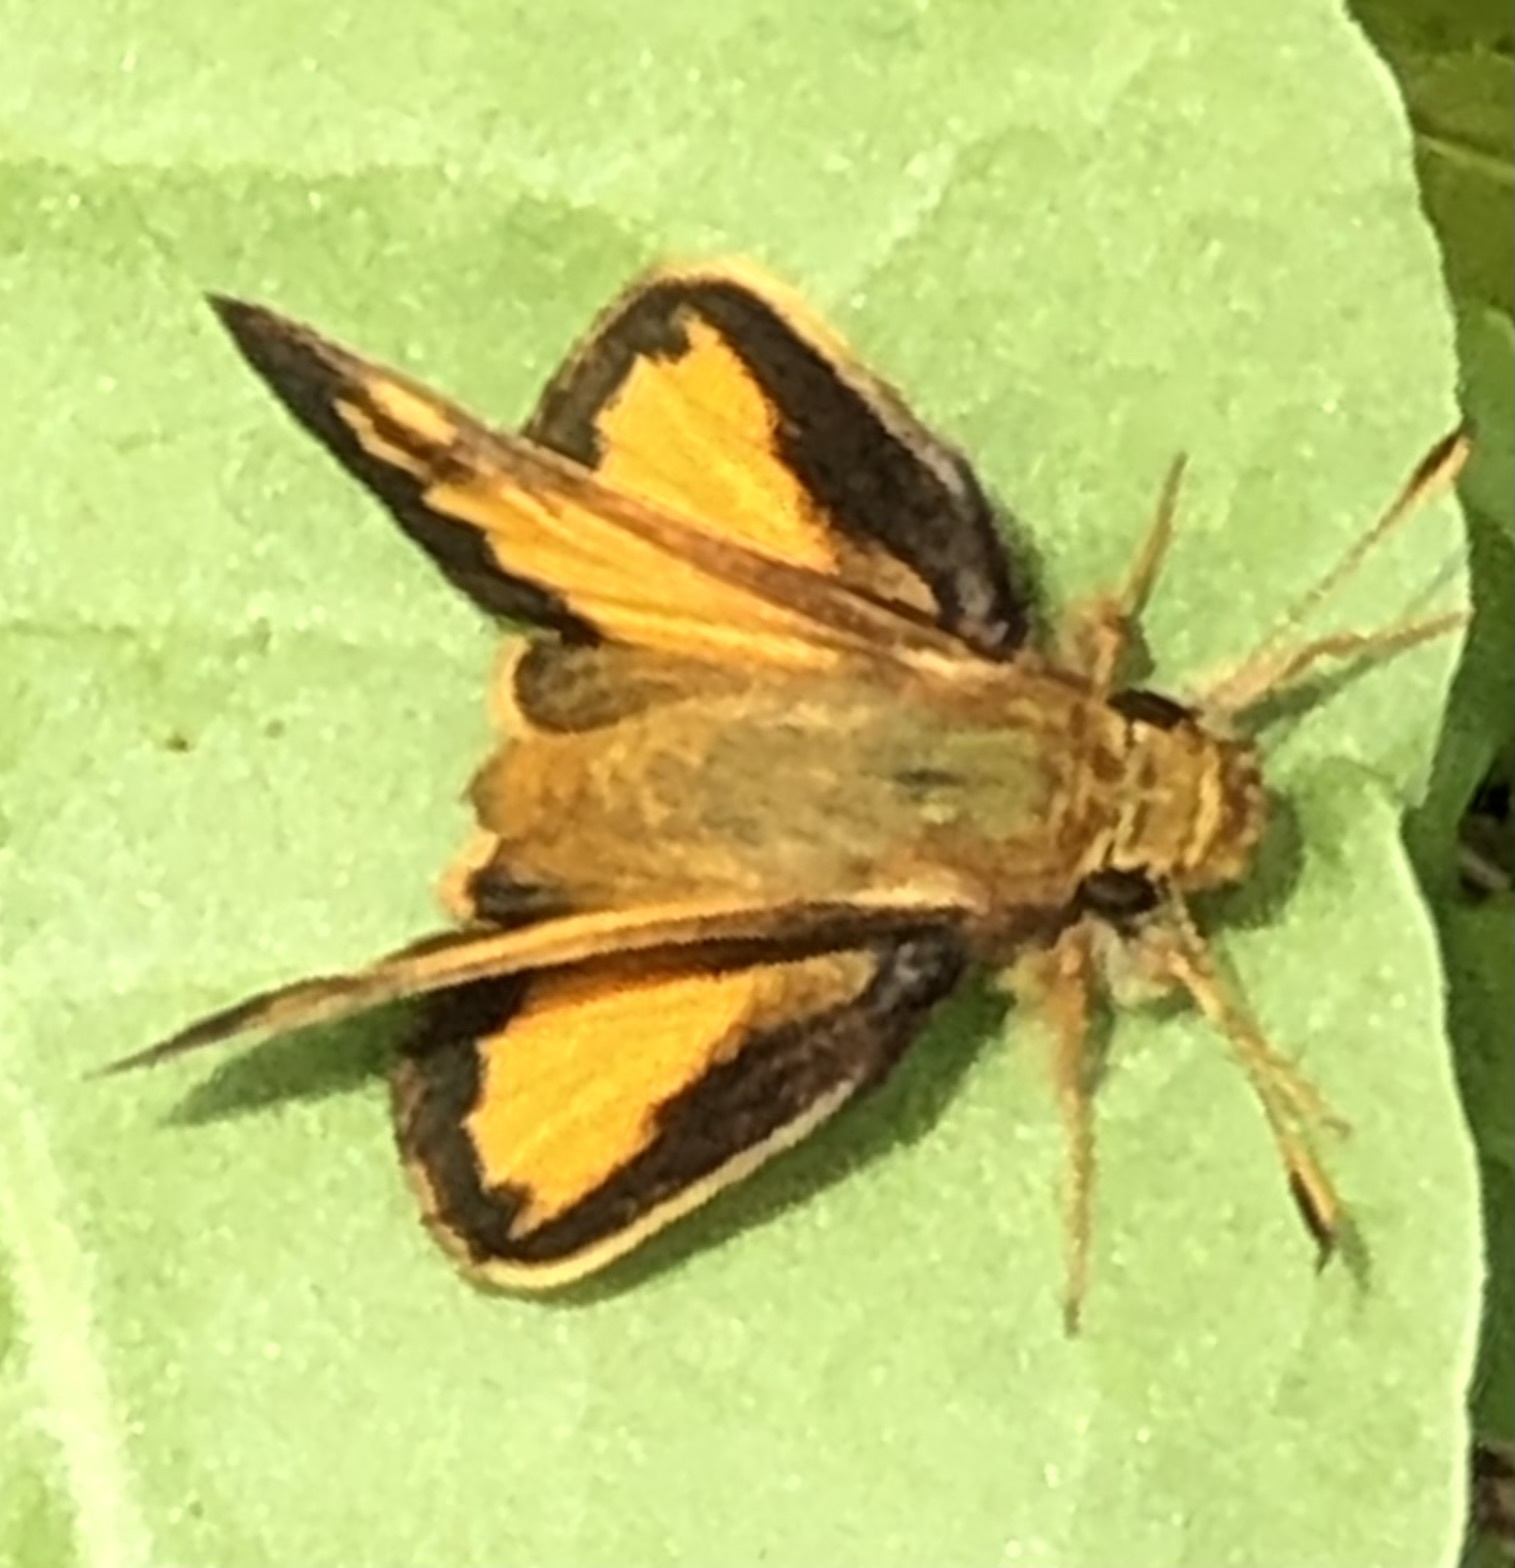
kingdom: Animalia
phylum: Arthropoda
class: Insecta
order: Lepidoptera
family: Hesperiidae
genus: Lon
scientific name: Lon zabulon
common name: Zabulon skipper
